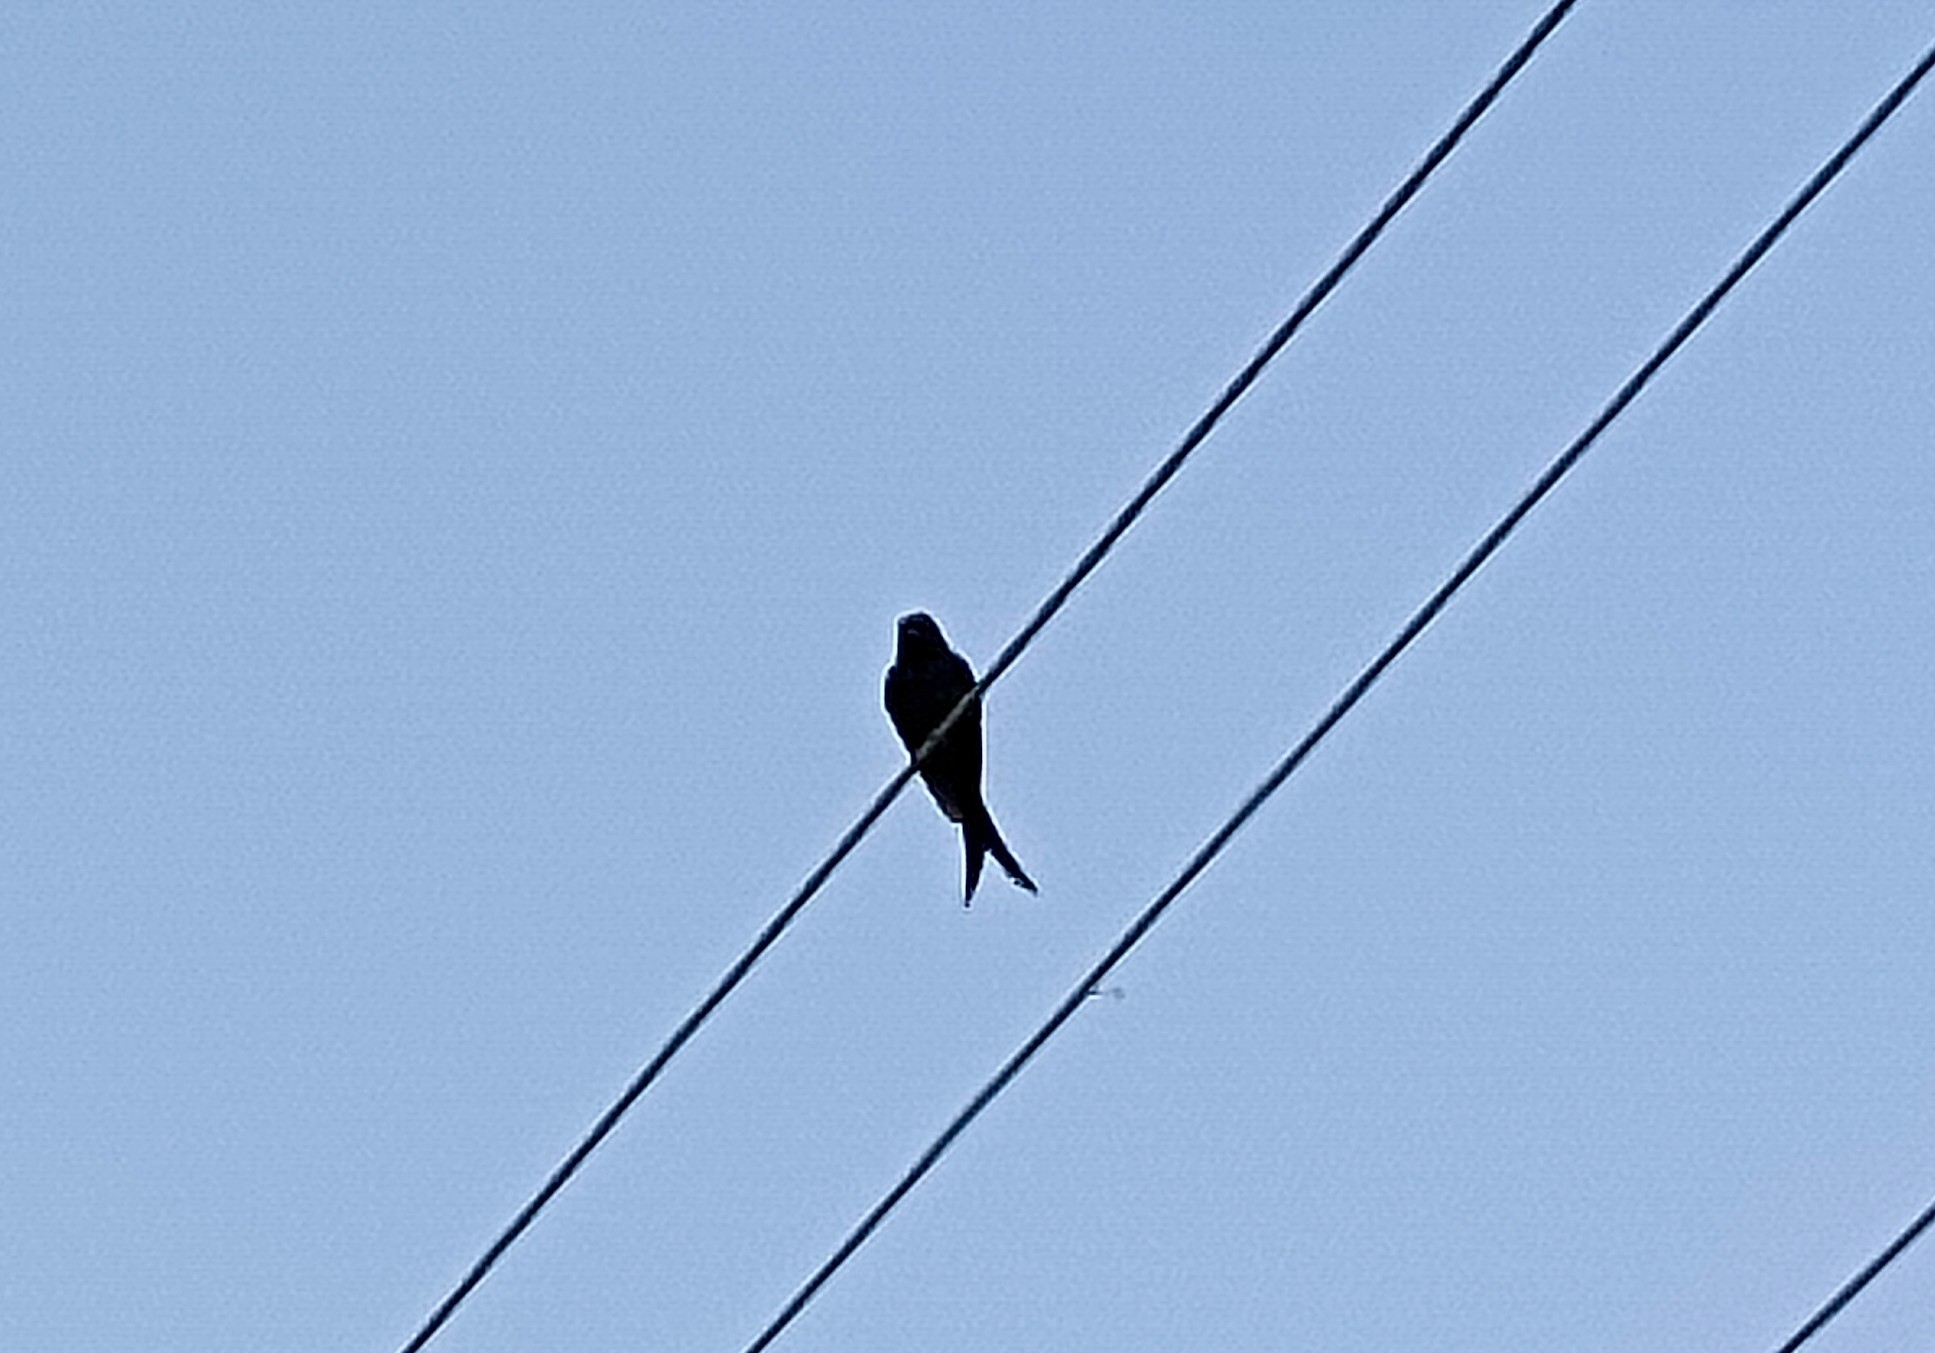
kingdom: Animalia
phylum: Chordata
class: Aves
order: Passeriformes
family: Dicruridae
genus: Dicrurus
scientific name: Dicrurus macrocercus
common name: Black drongo
